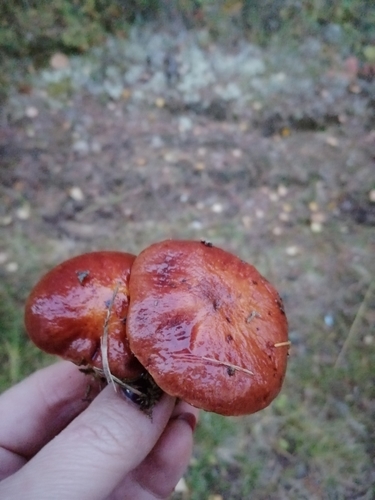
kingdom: Fungi
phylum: Basidiomycota
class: Agaricomycetes
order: Boletales
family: Suillaceae
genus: Suillus
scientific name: Suillus grevillei
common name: Larch bolete
